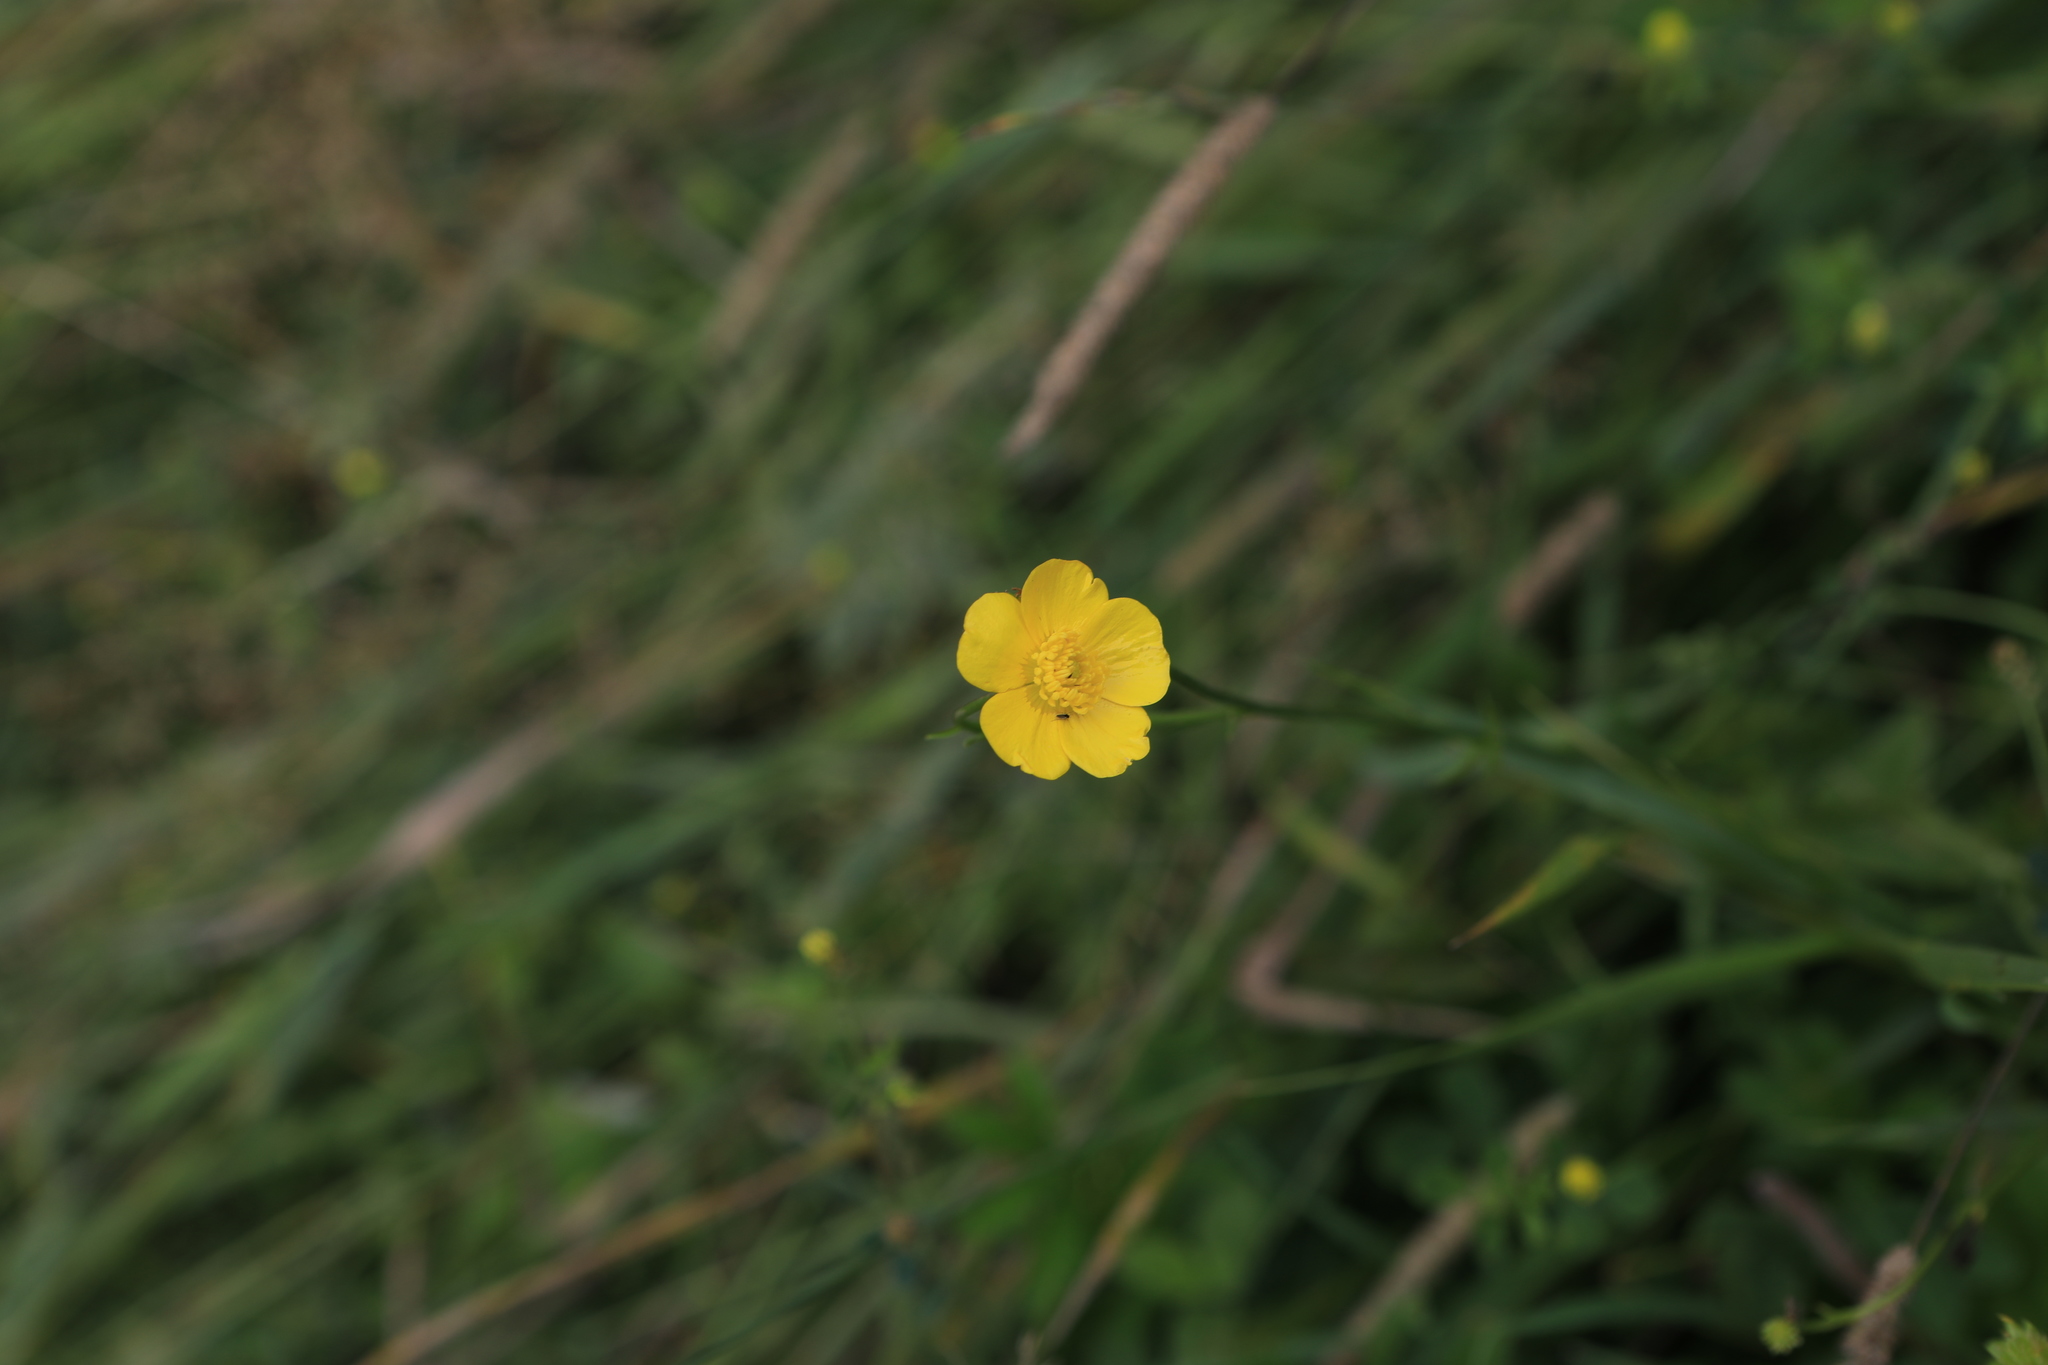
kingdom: Plantae
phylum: Tracheophyta
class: Magnoliopsida
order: Ranunculales
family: Ranunculaceae
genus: Ranunculus
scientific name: Ranunculus polyanthemos
